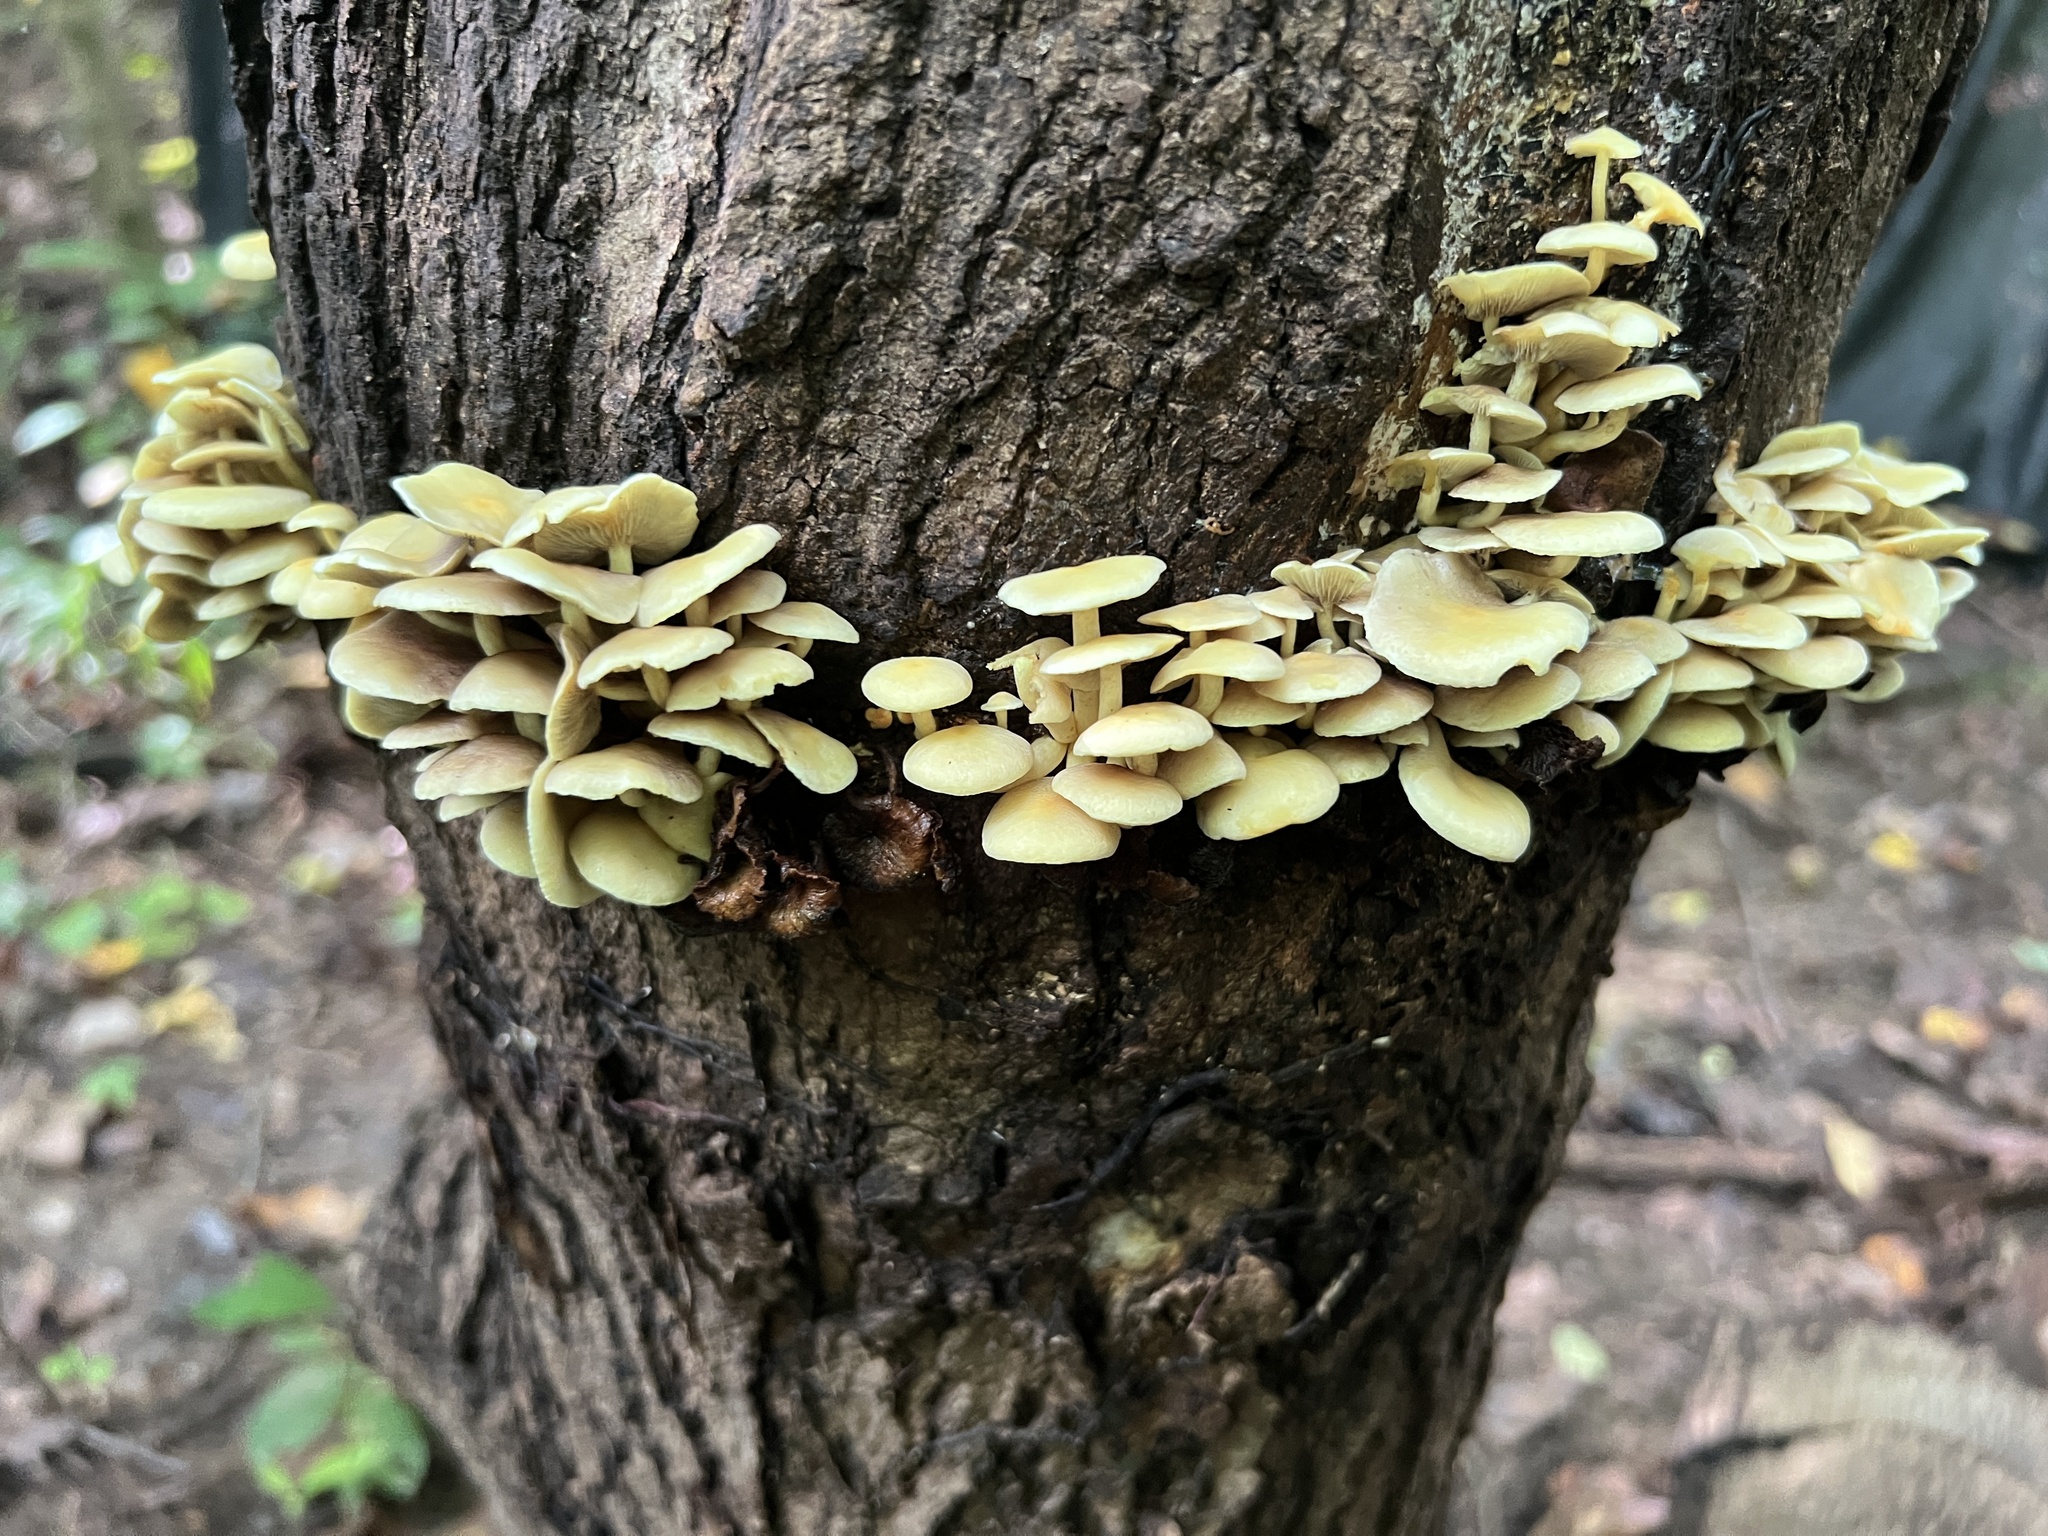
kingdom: Fungi
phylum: Basidiomycota
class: Agaricomycetes
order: Agaricales
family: Strophariaceae
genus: Hypholoma
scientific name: Hypholoma fasciculare
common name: Sulphur tuft
